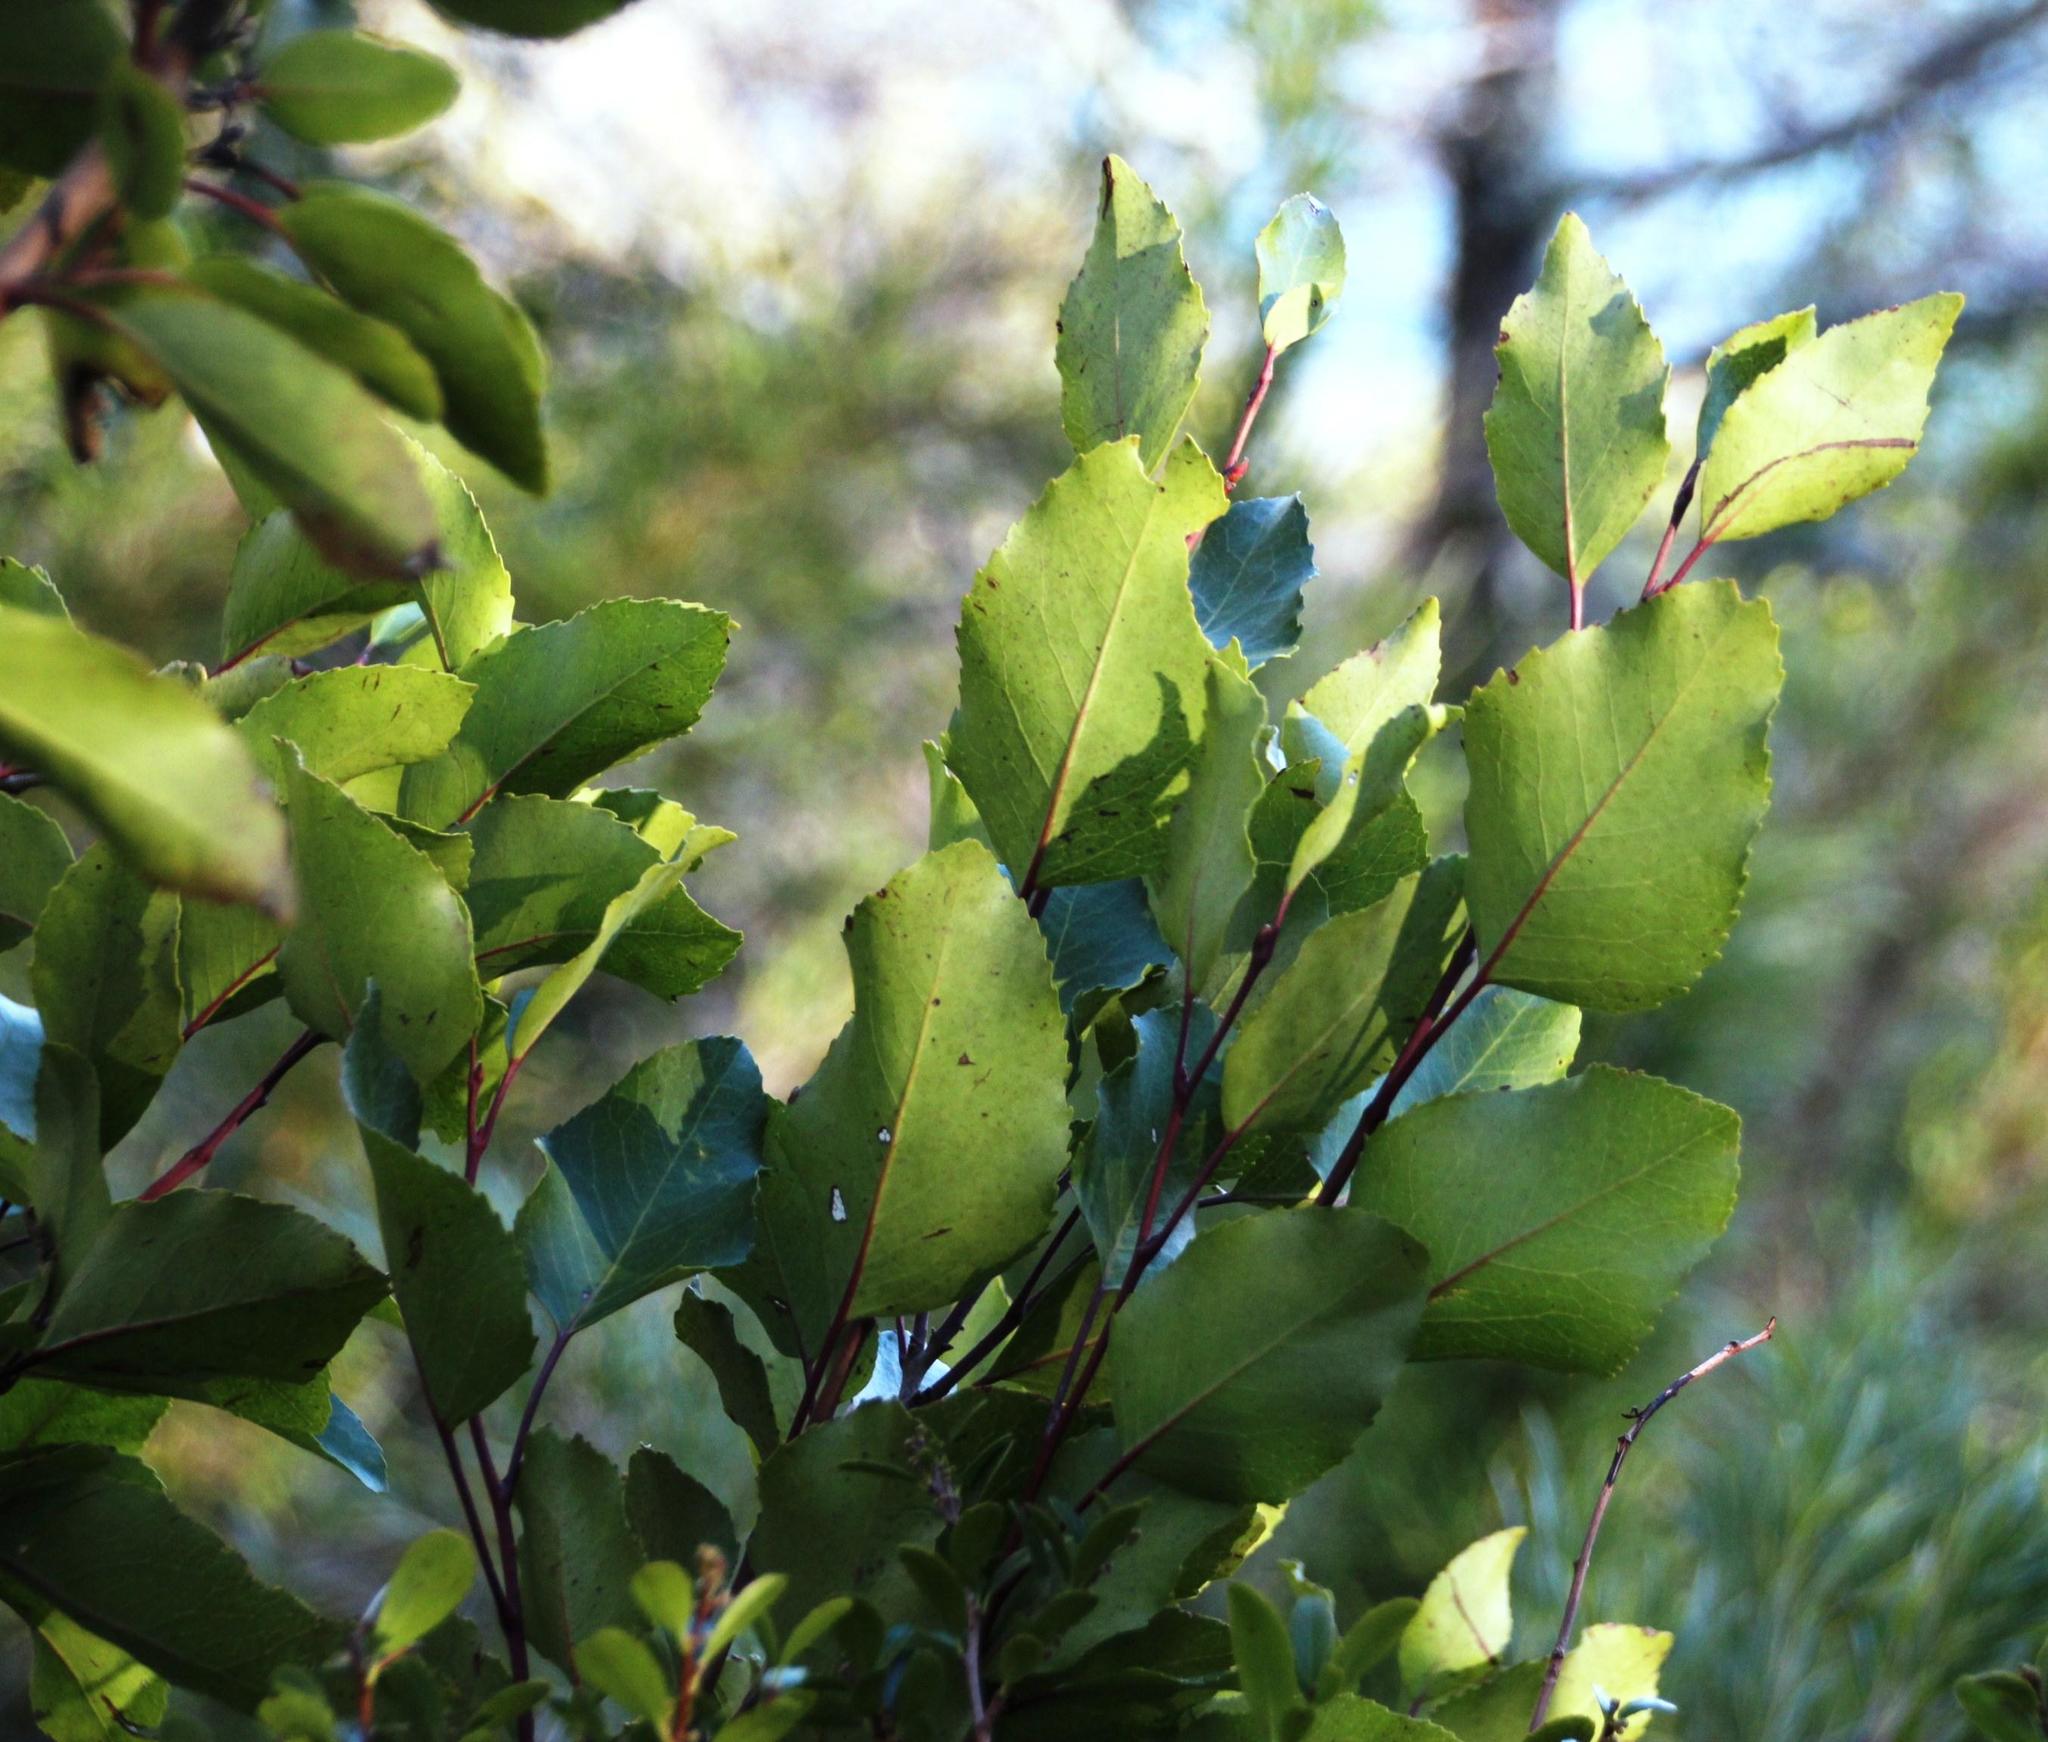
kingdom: Plantae
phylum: Tracheophyta
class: Magnoliopsida
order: Proteales
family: Proteaceae
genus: Lomatia
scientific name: Lomatia hirsuta
